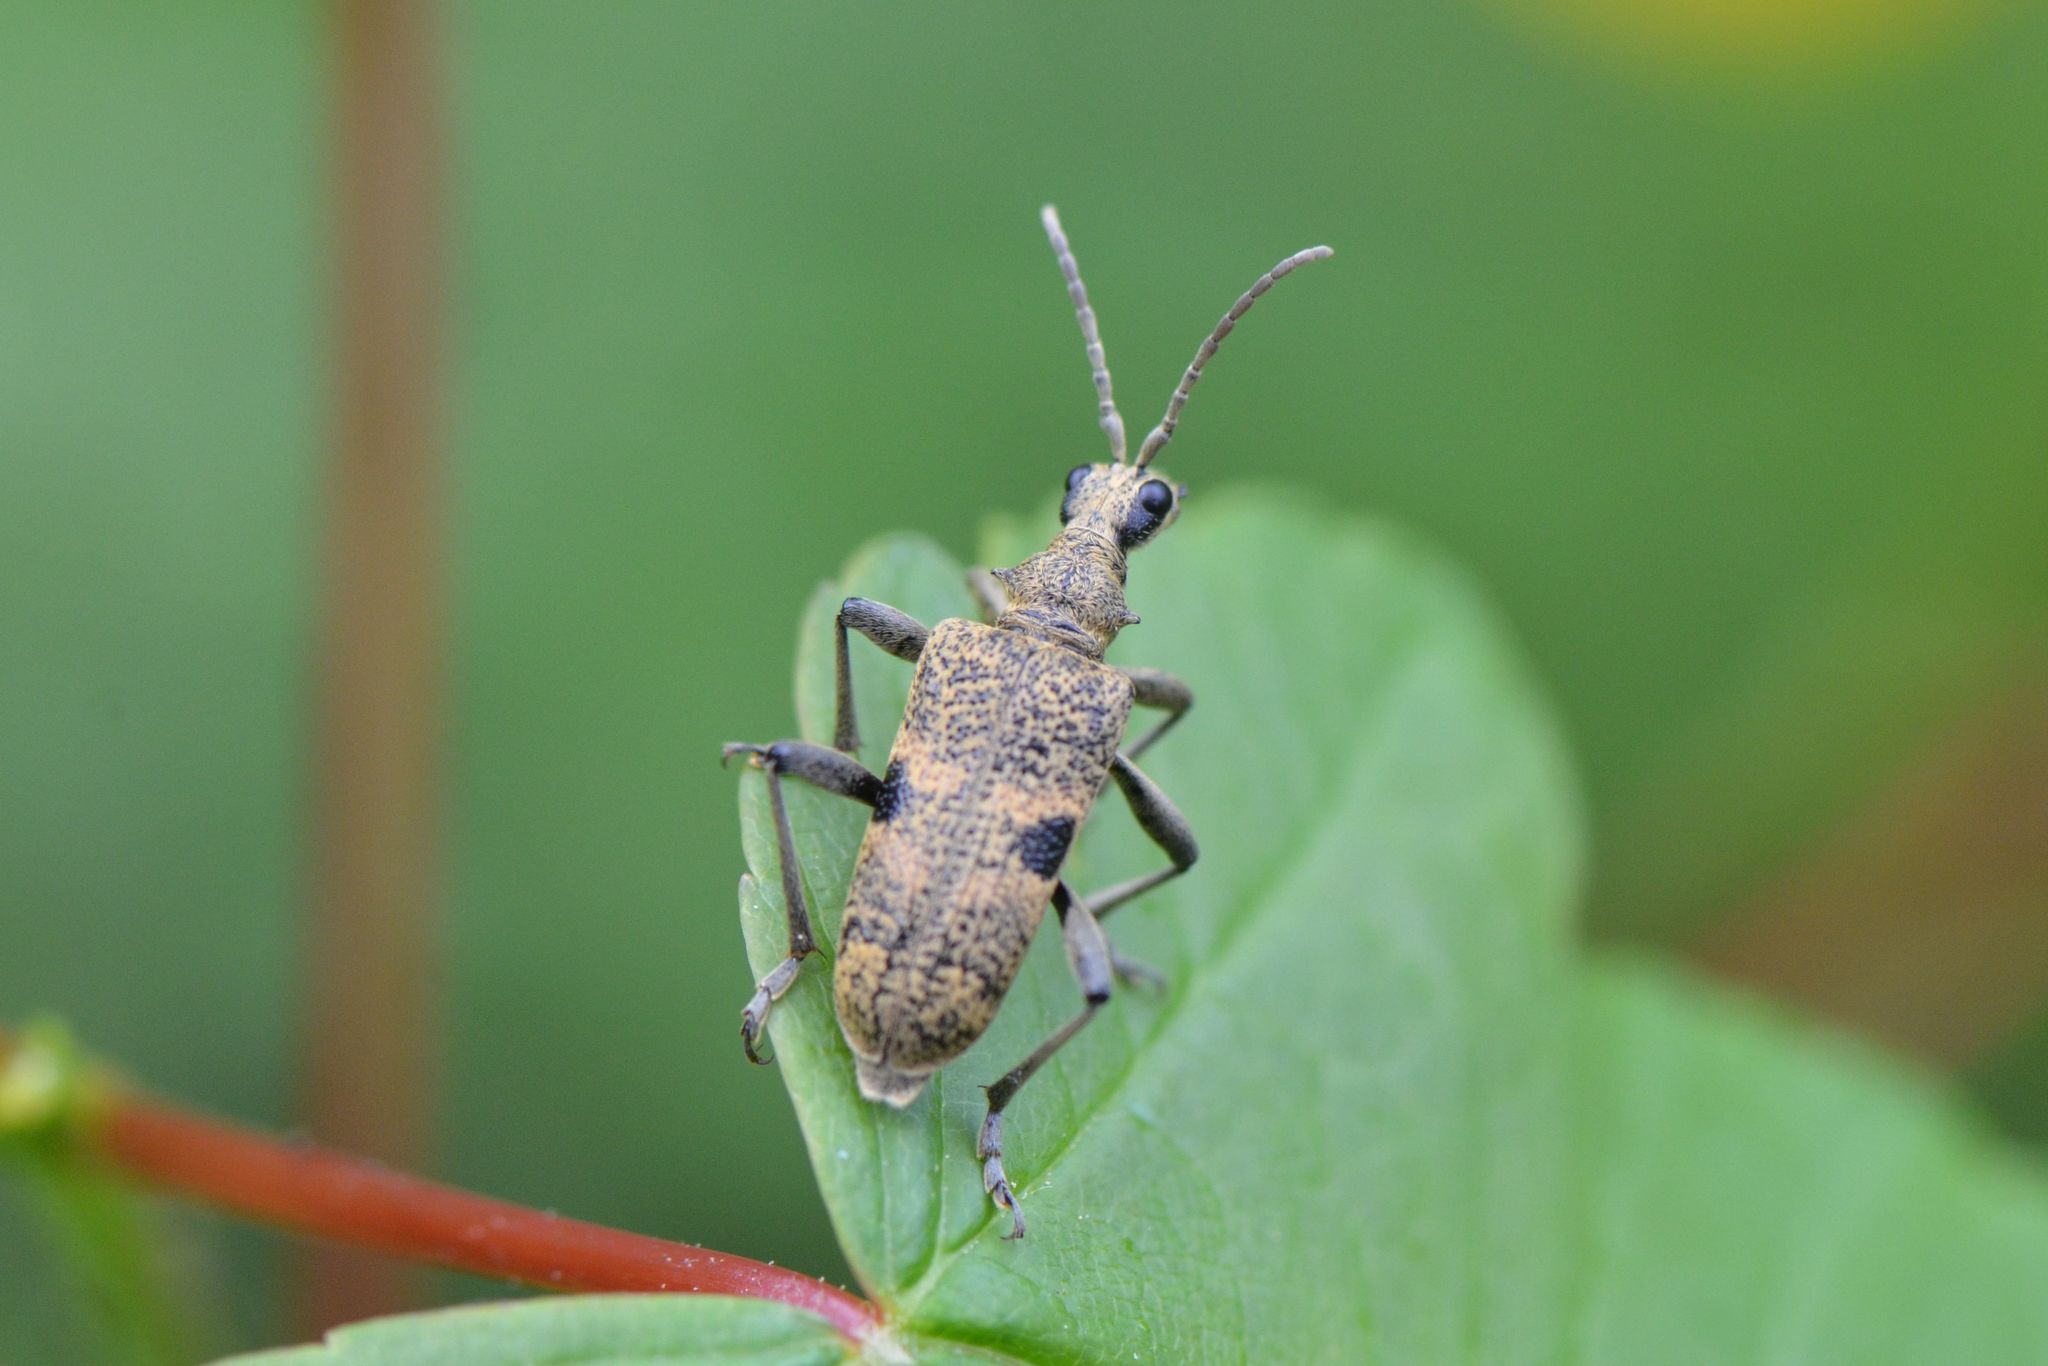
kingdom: Animalia
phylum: Arthropoda
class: Insecta
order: Coleoptera
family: Cerambycidae
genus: Rhagium
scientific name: Rhagium mordax
